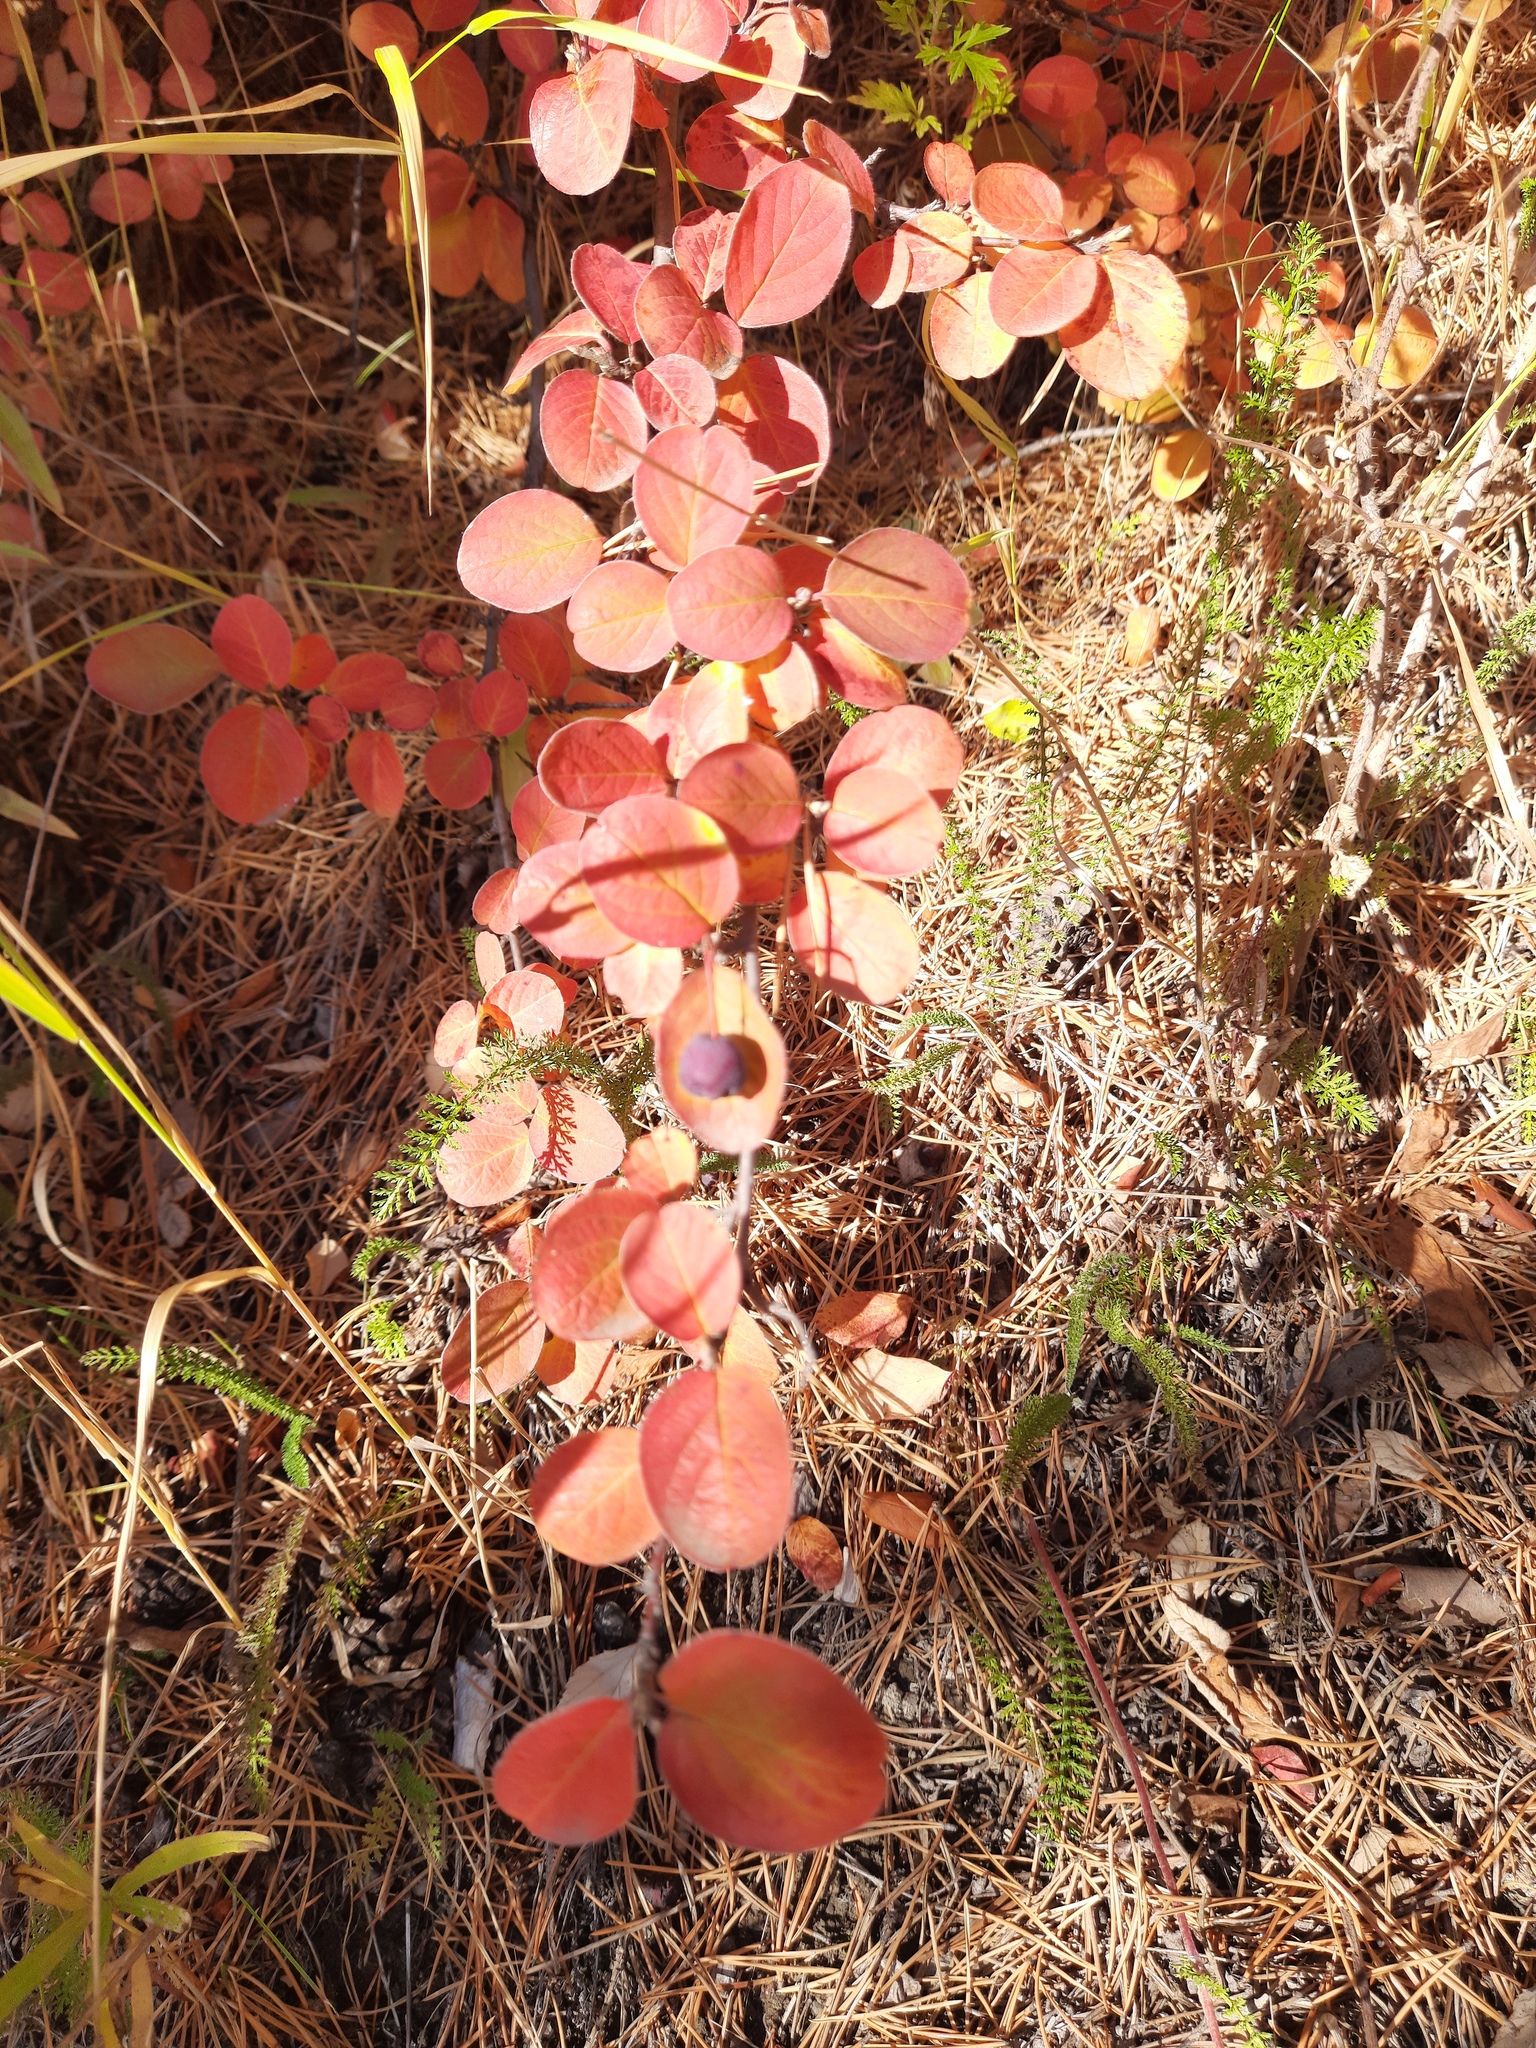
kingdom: Plantae
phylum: Tracheophyta
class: Magnoliopsida
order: Rosales
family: Rosaceae
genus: Cotoneaster
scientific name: Cotoneaster melanocarpus
